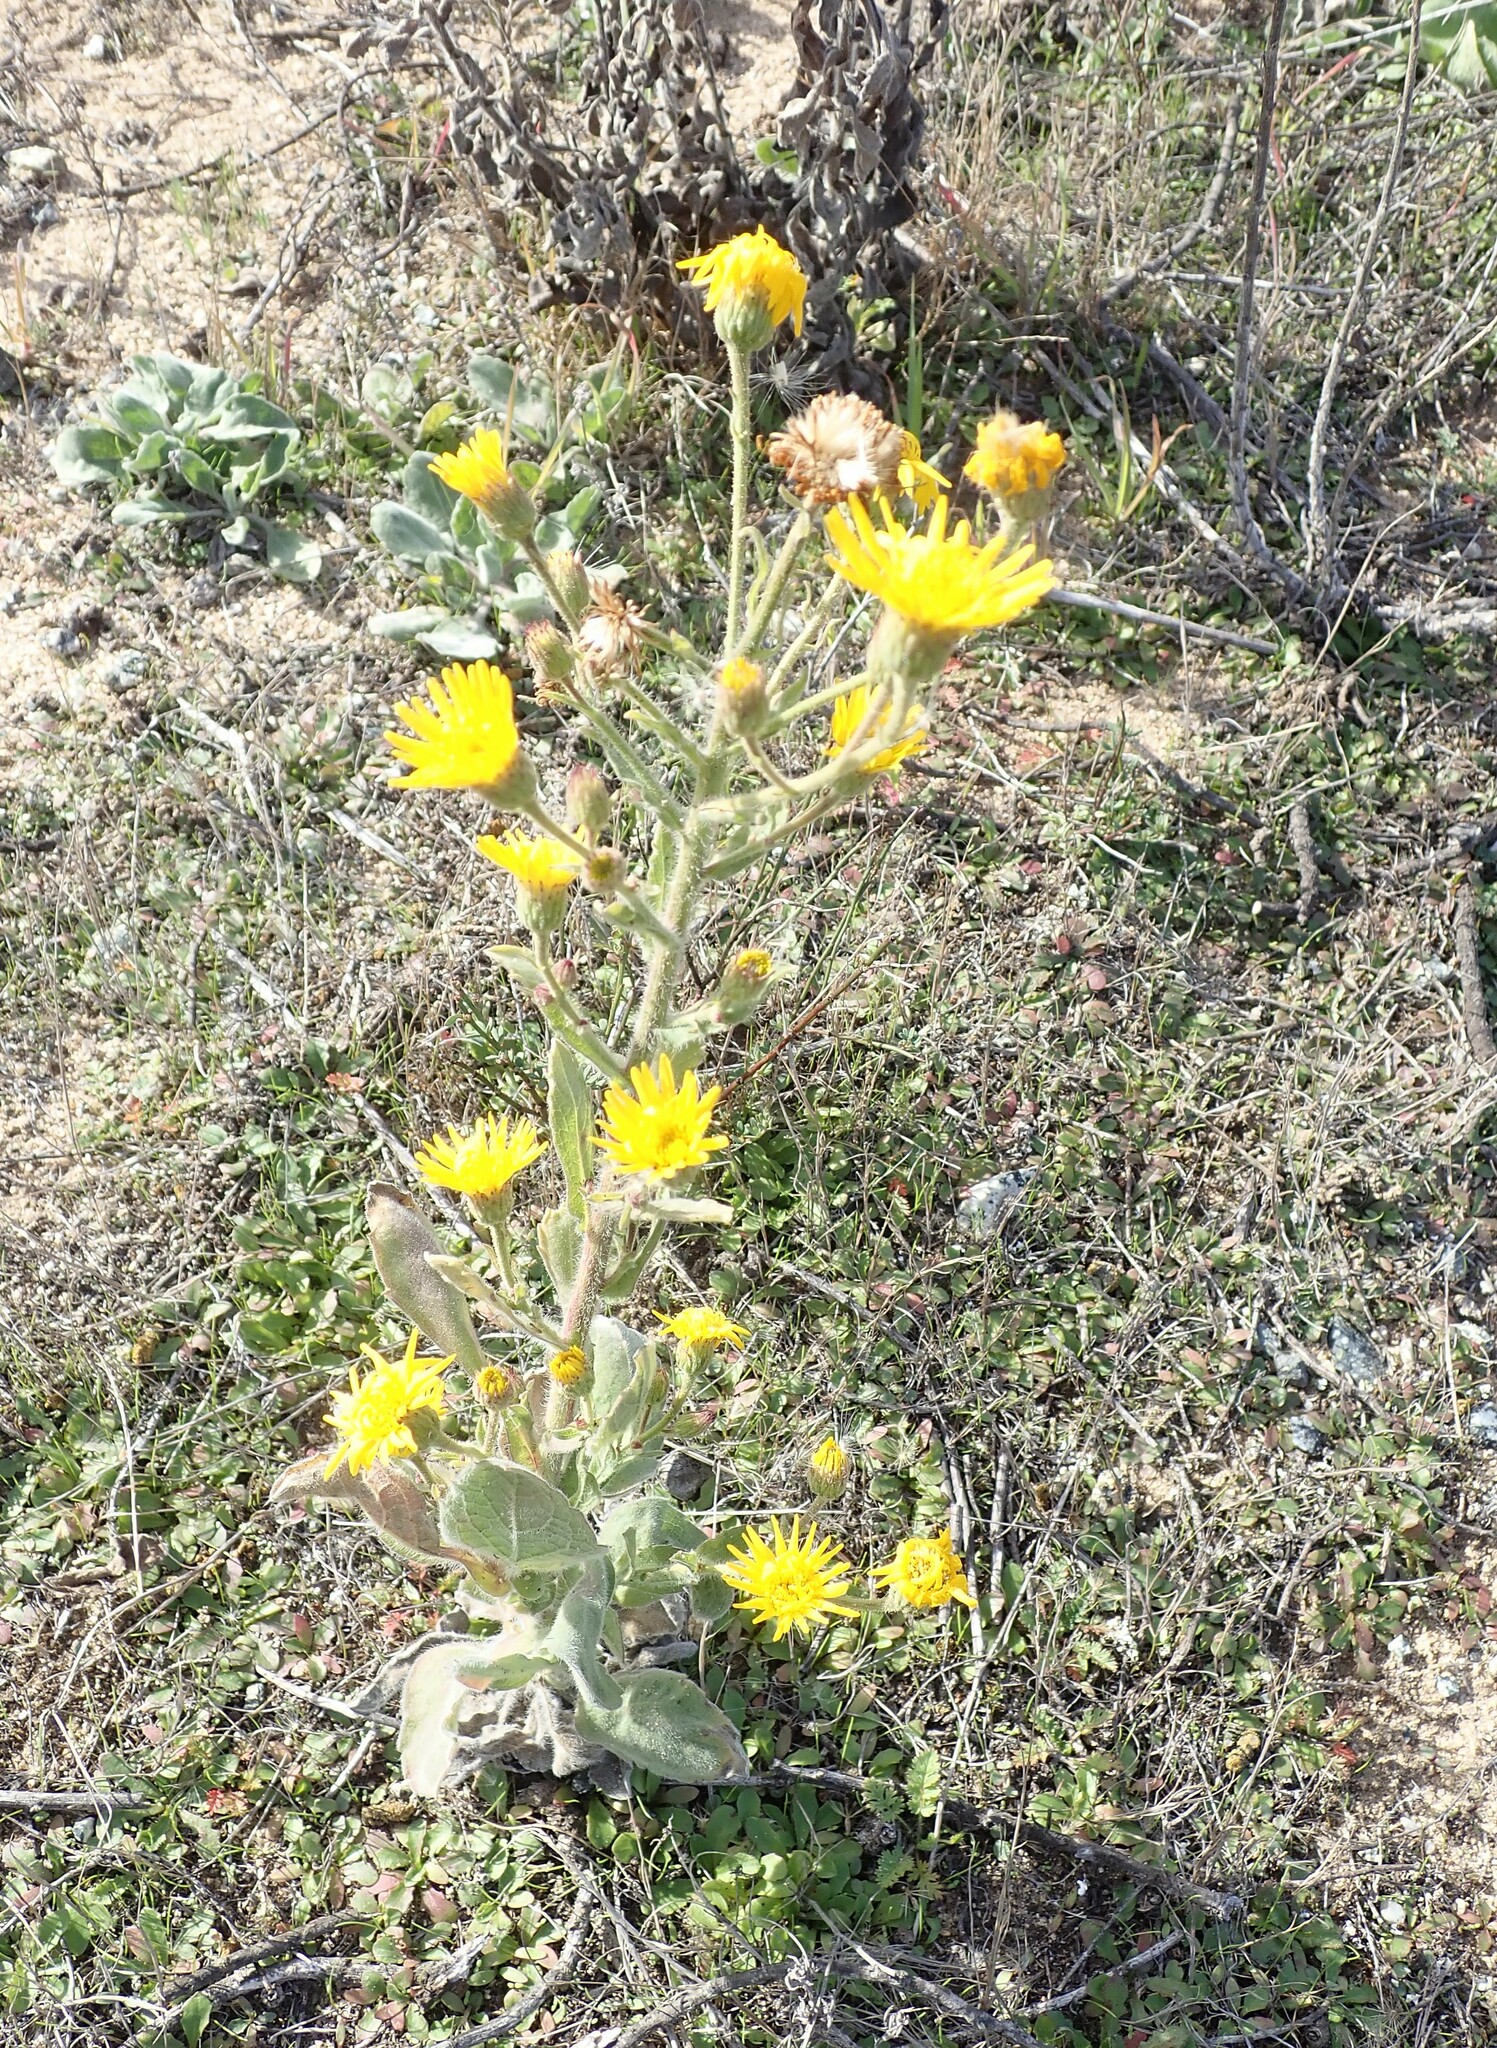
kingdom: Plantae
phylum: Tracheophyta
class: Magnoliopsida
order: Asterales
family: Asteraceae
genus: Heterotheca
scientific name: Heterotheca grandiflora
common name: Telegraphweed
